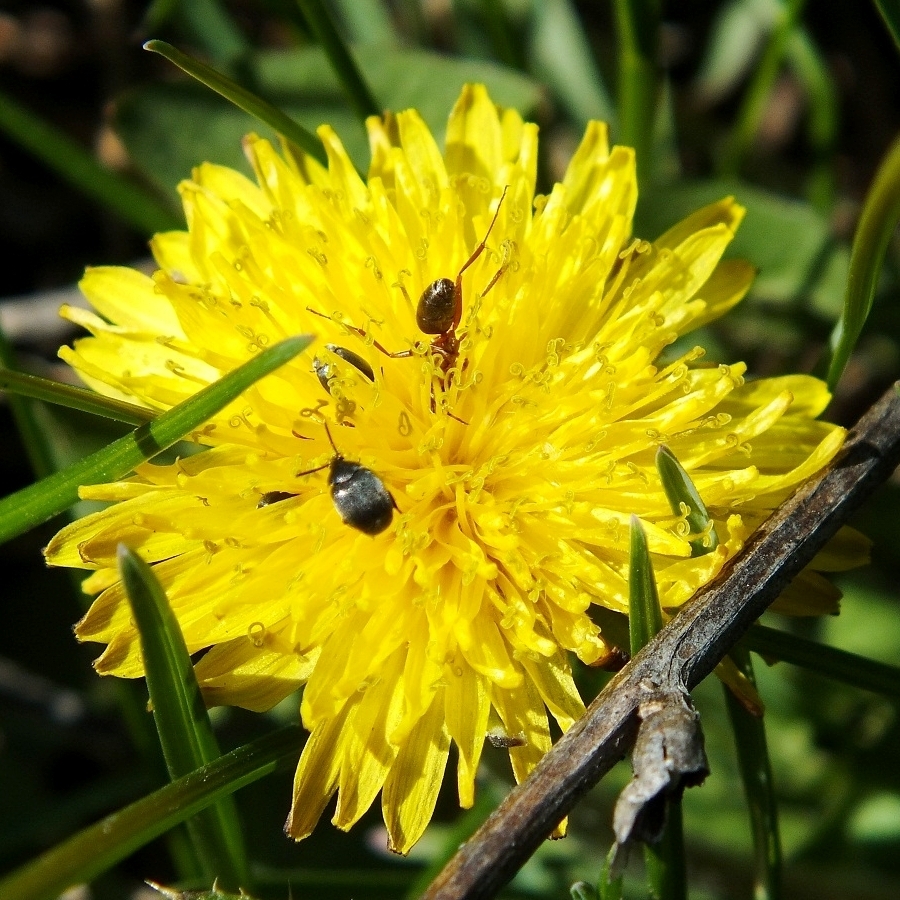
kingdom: Plantae
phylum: Tracheophyta
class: Magnoliopsida
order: Asterales
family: Asteraceae
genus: Taraxacum
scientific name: Taraxacum officinale
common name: Common dandelion
